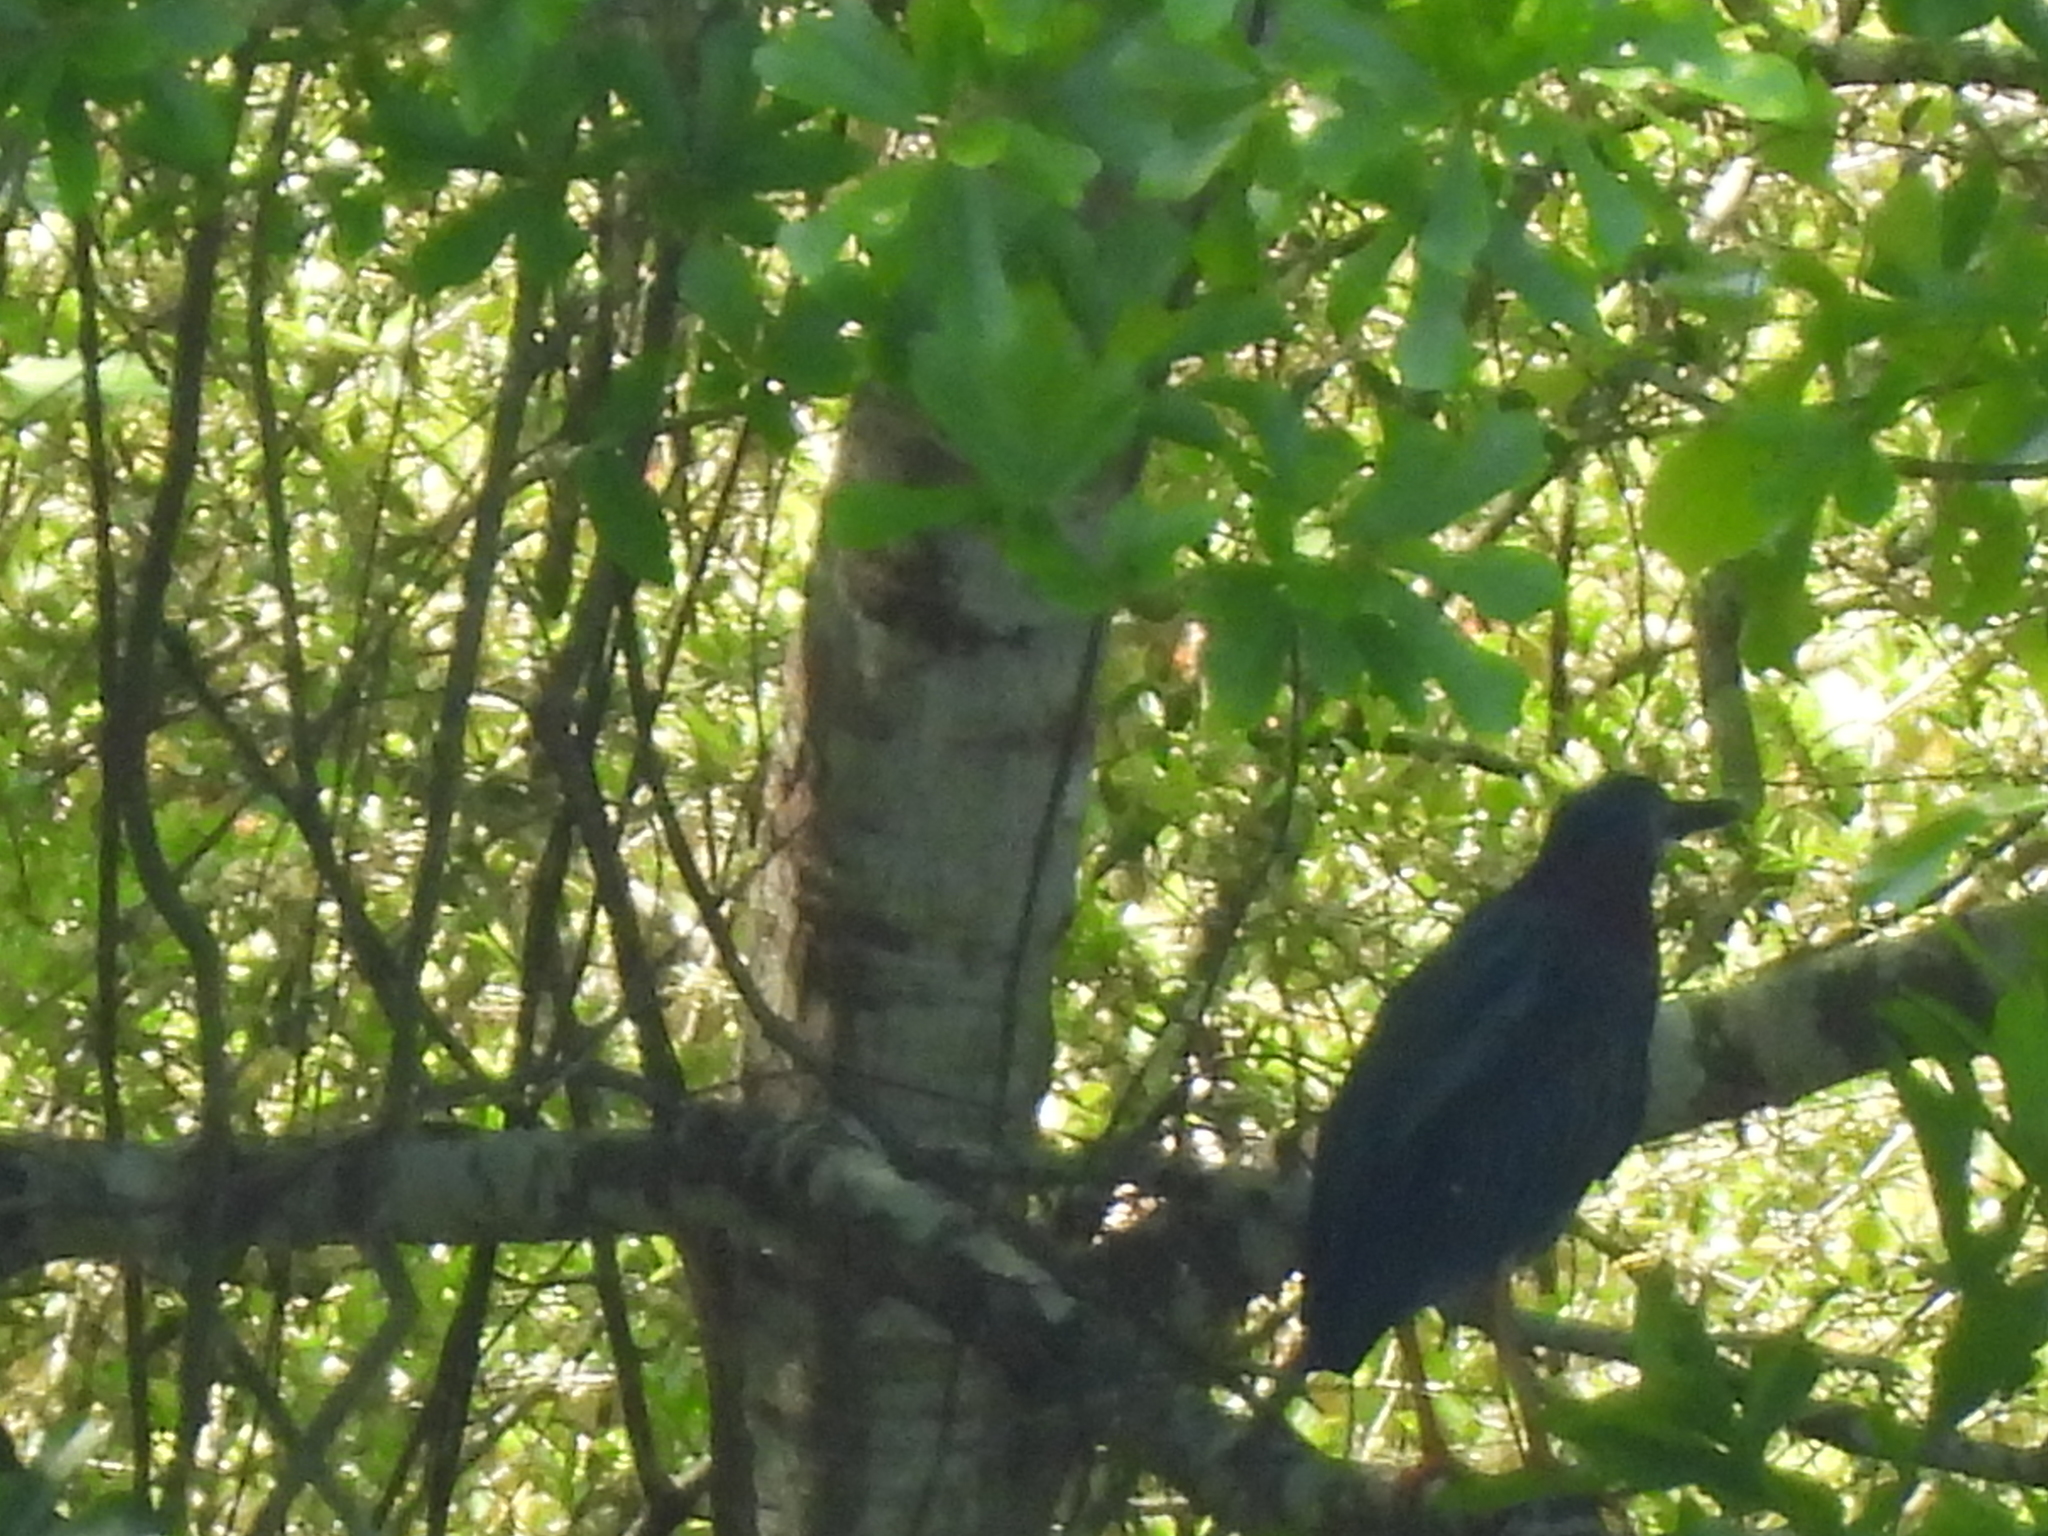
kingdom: Animalia
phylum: Chordata
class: Aves
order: Pelecaniformes
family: Ardeidae
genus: Butorides
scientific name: Butorides virescens
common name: Green heron
